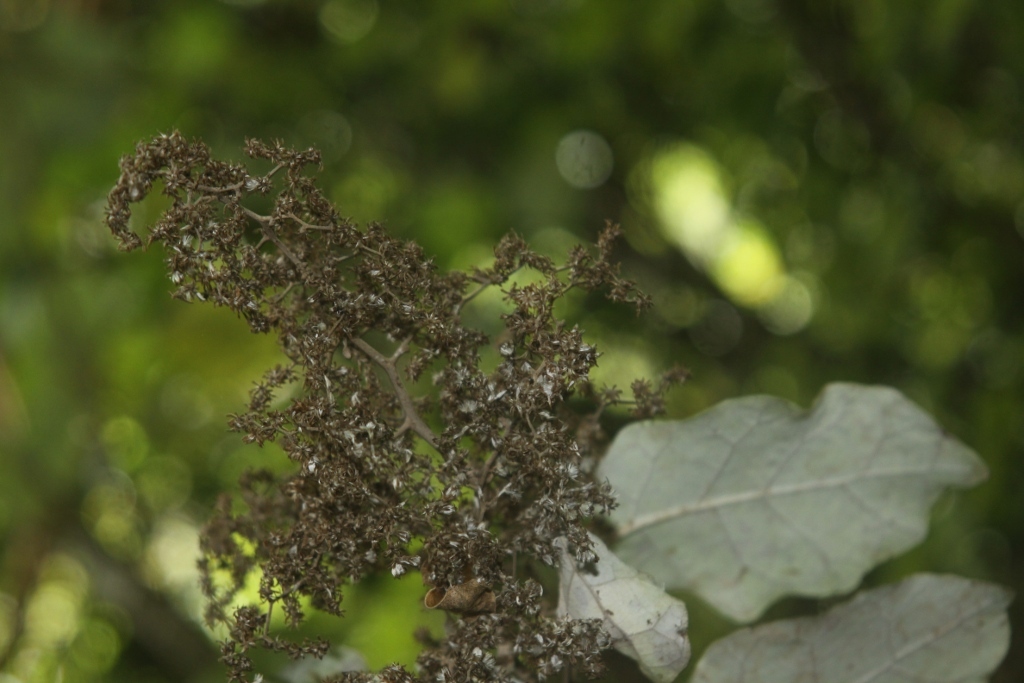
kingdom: Plantae
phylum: Tracheophyta
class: Magnoliopsida
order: Asterales
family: Asteraceae
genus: Brachyglottis
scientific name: Brachyglottis repanda
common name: Hedge ragwort
